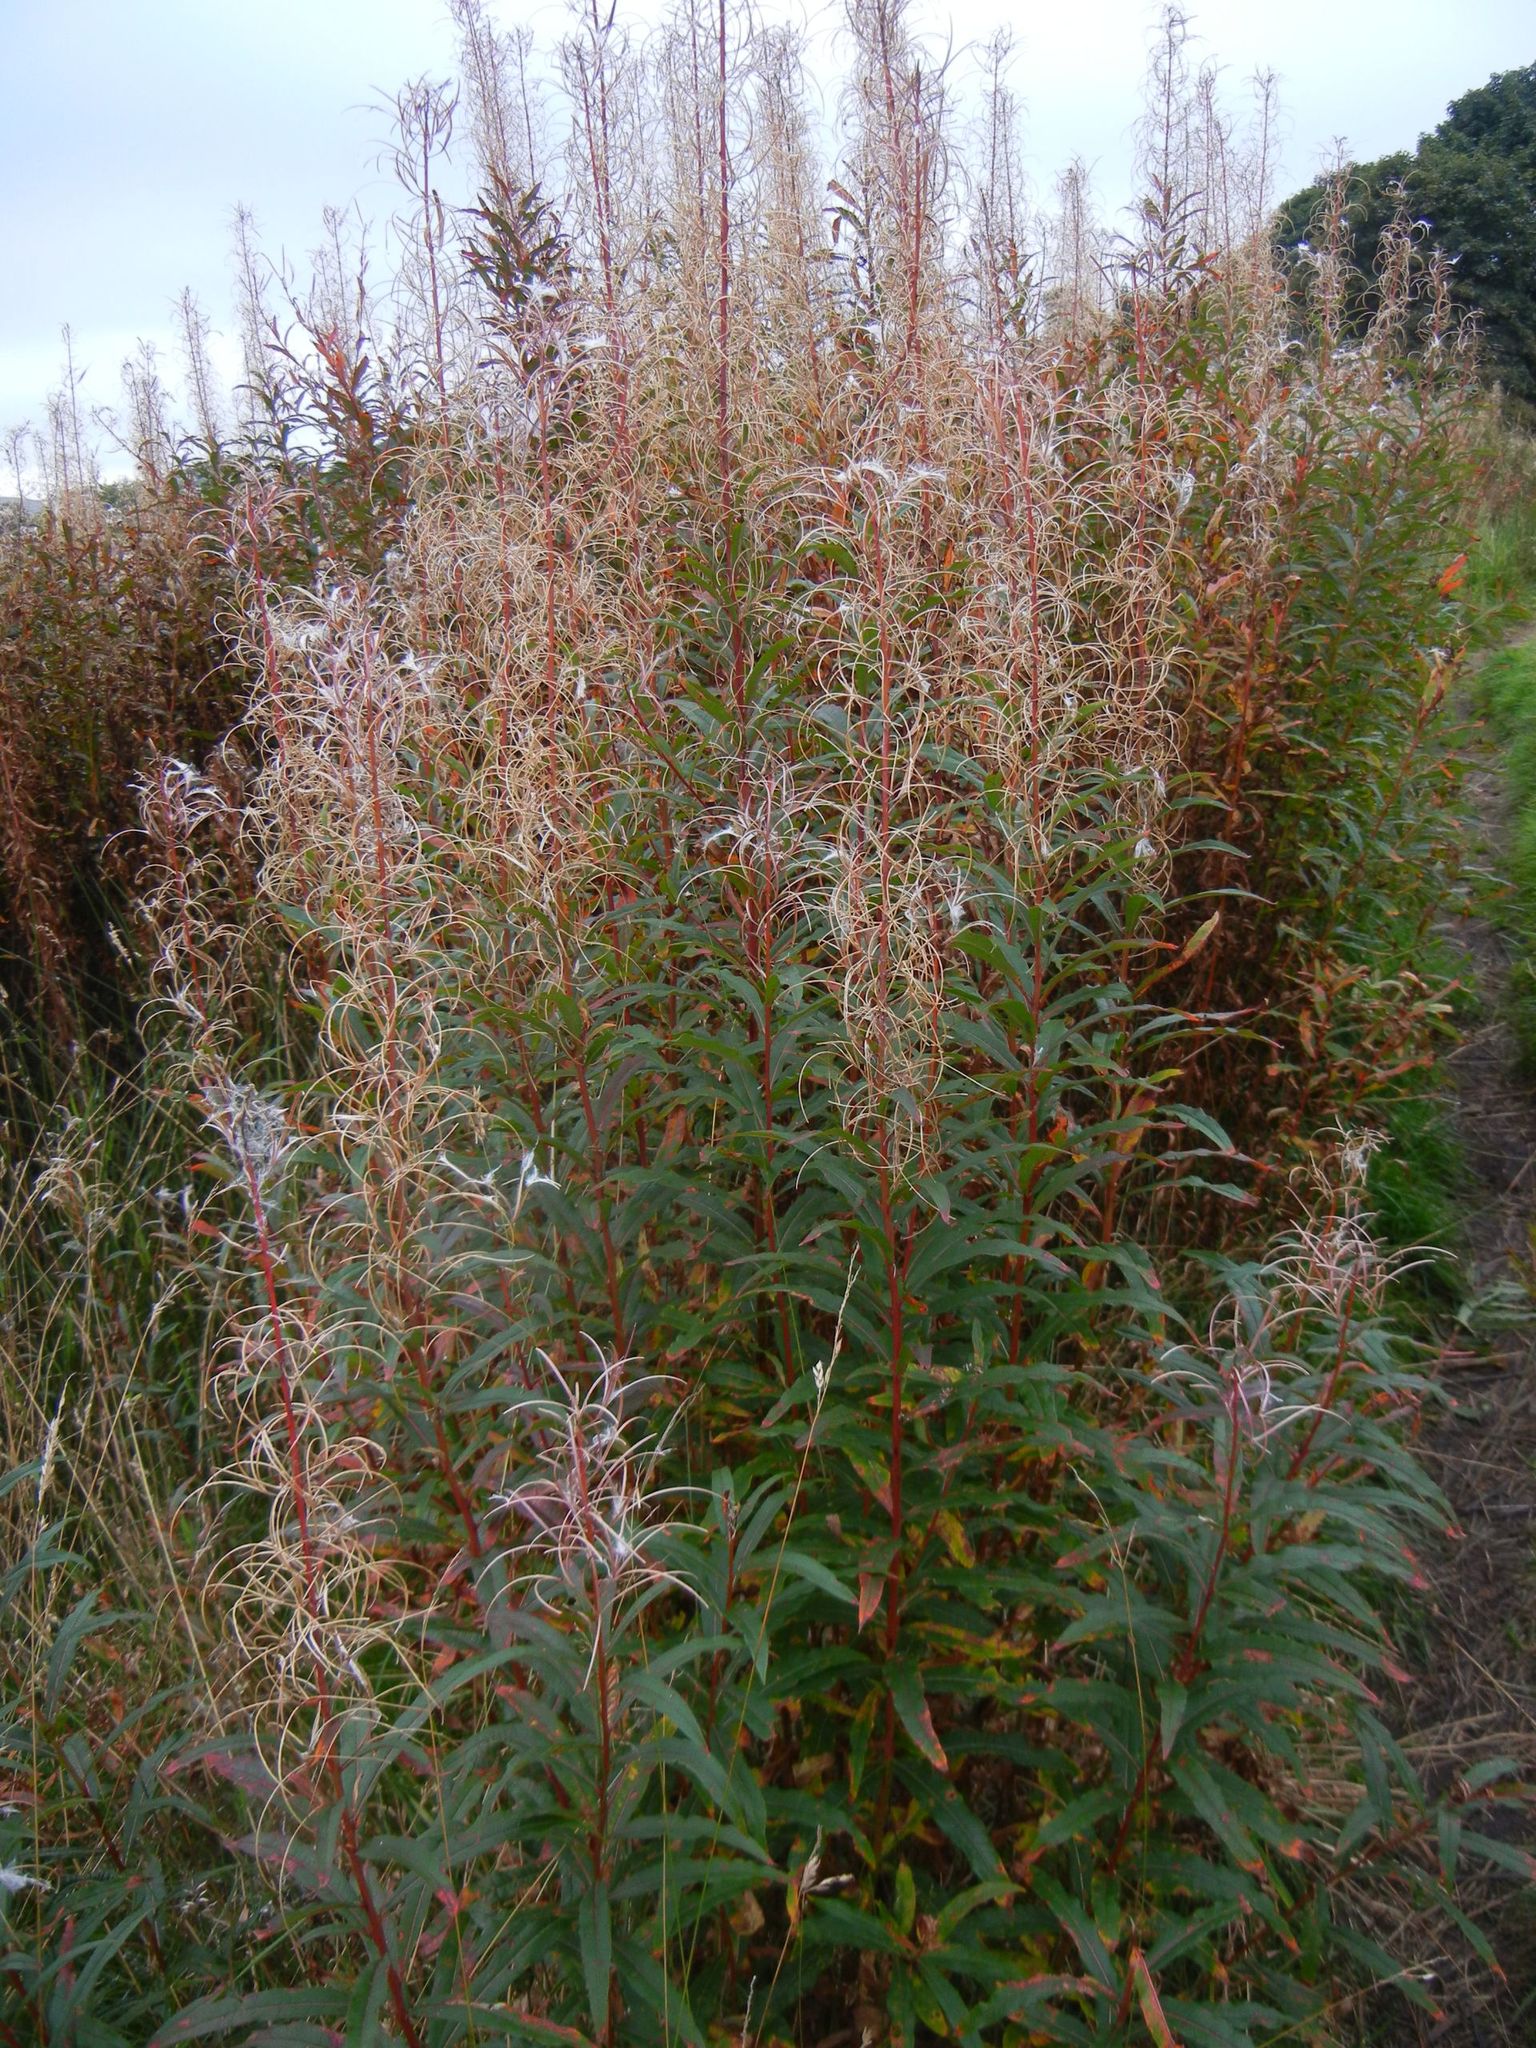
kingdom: Plantae
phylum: Tracheophyta
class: Magnoliopsida
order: Myrtales
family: Onagraceae
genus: Chamaenerion
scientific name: Chamaenerion angustifolium
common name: Fireweed
